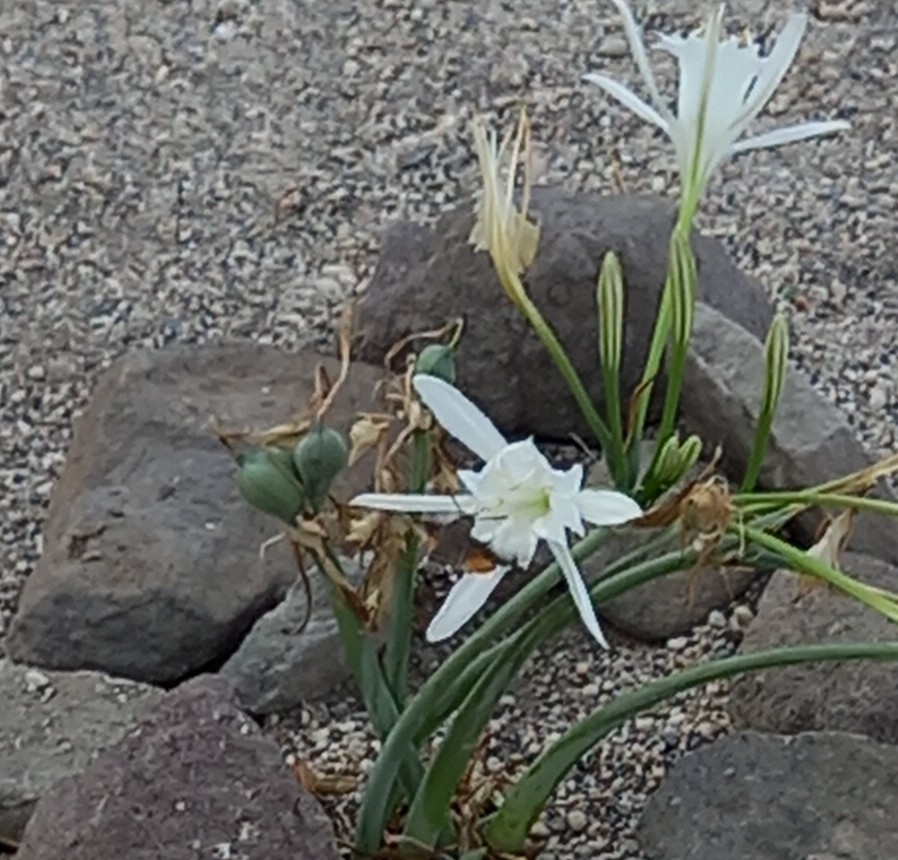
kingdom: Animalia
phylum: Arthropoda
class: Insecta
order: Lepidoptera
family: Sphingidae
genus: Macroglossum
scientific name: Macroglossum stellatarum
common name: Humming-bird hawk-moth
